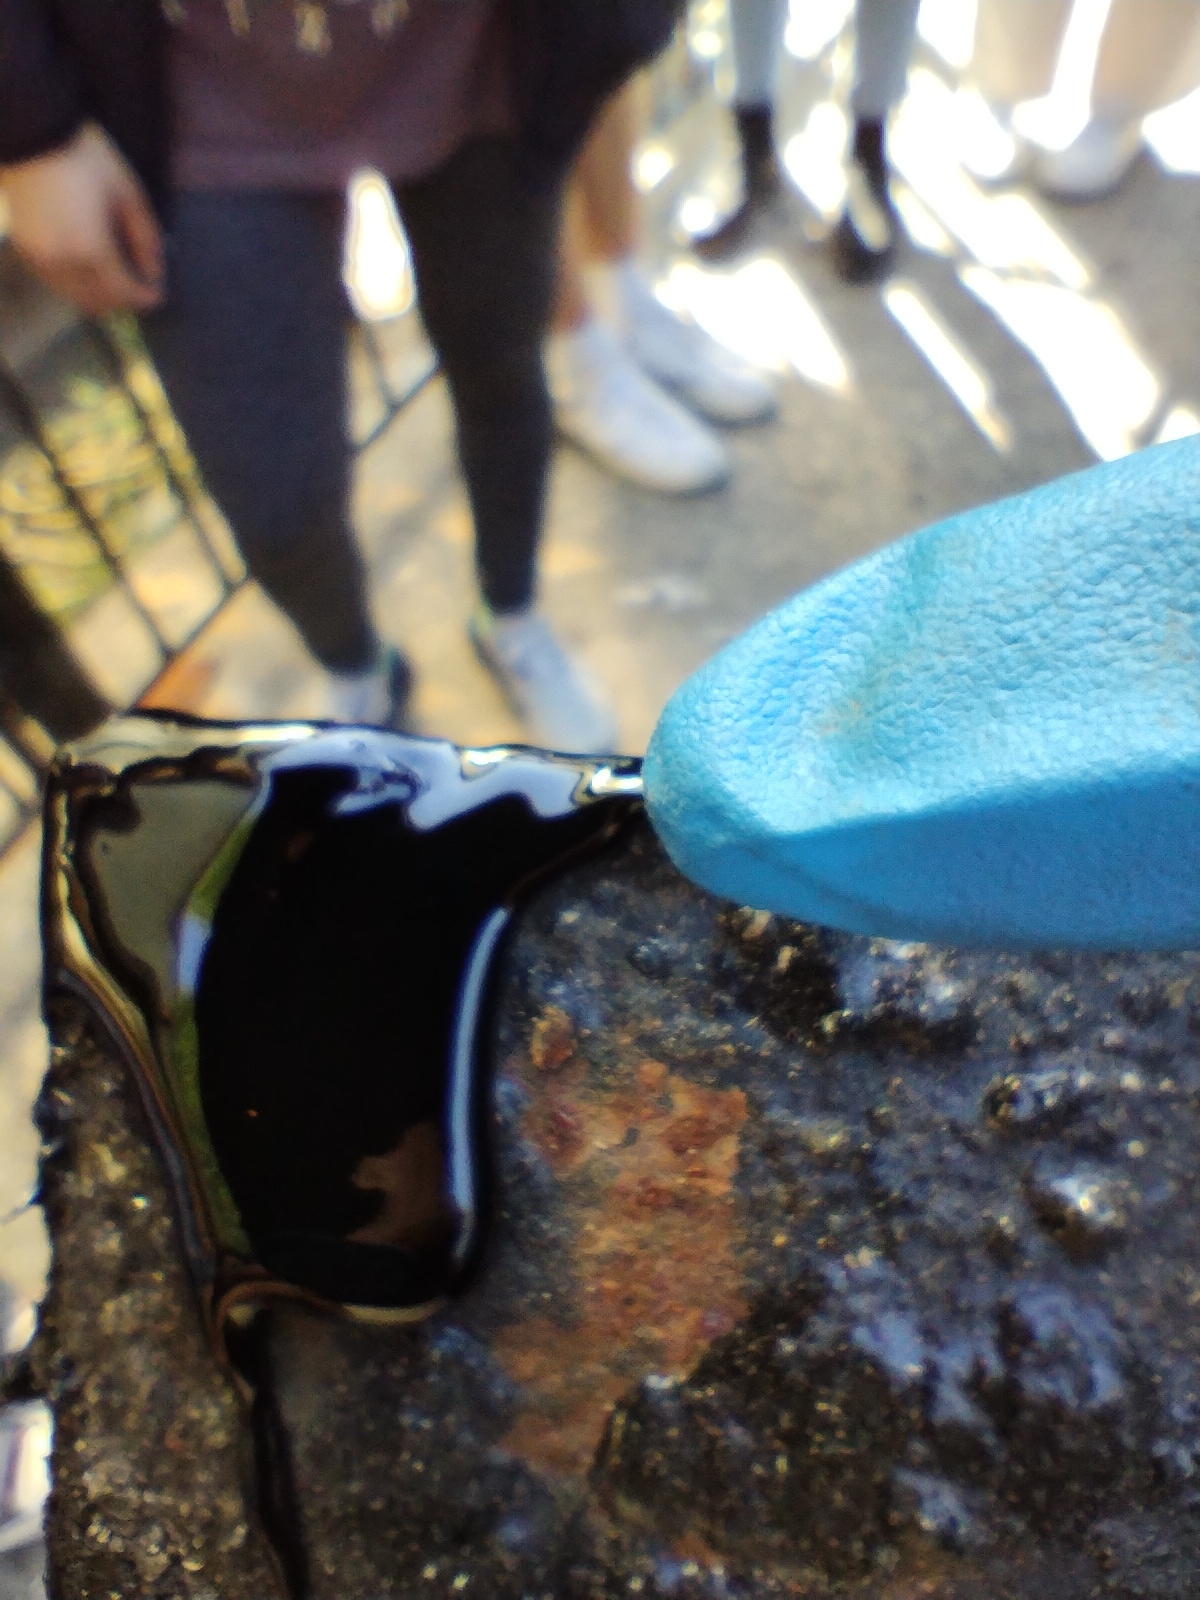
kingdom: Animalia
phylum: Arthropoda
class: Insecta
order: Diptera
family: Ephydridae
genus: Diasemocera
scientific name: Diasemocera petrolei
